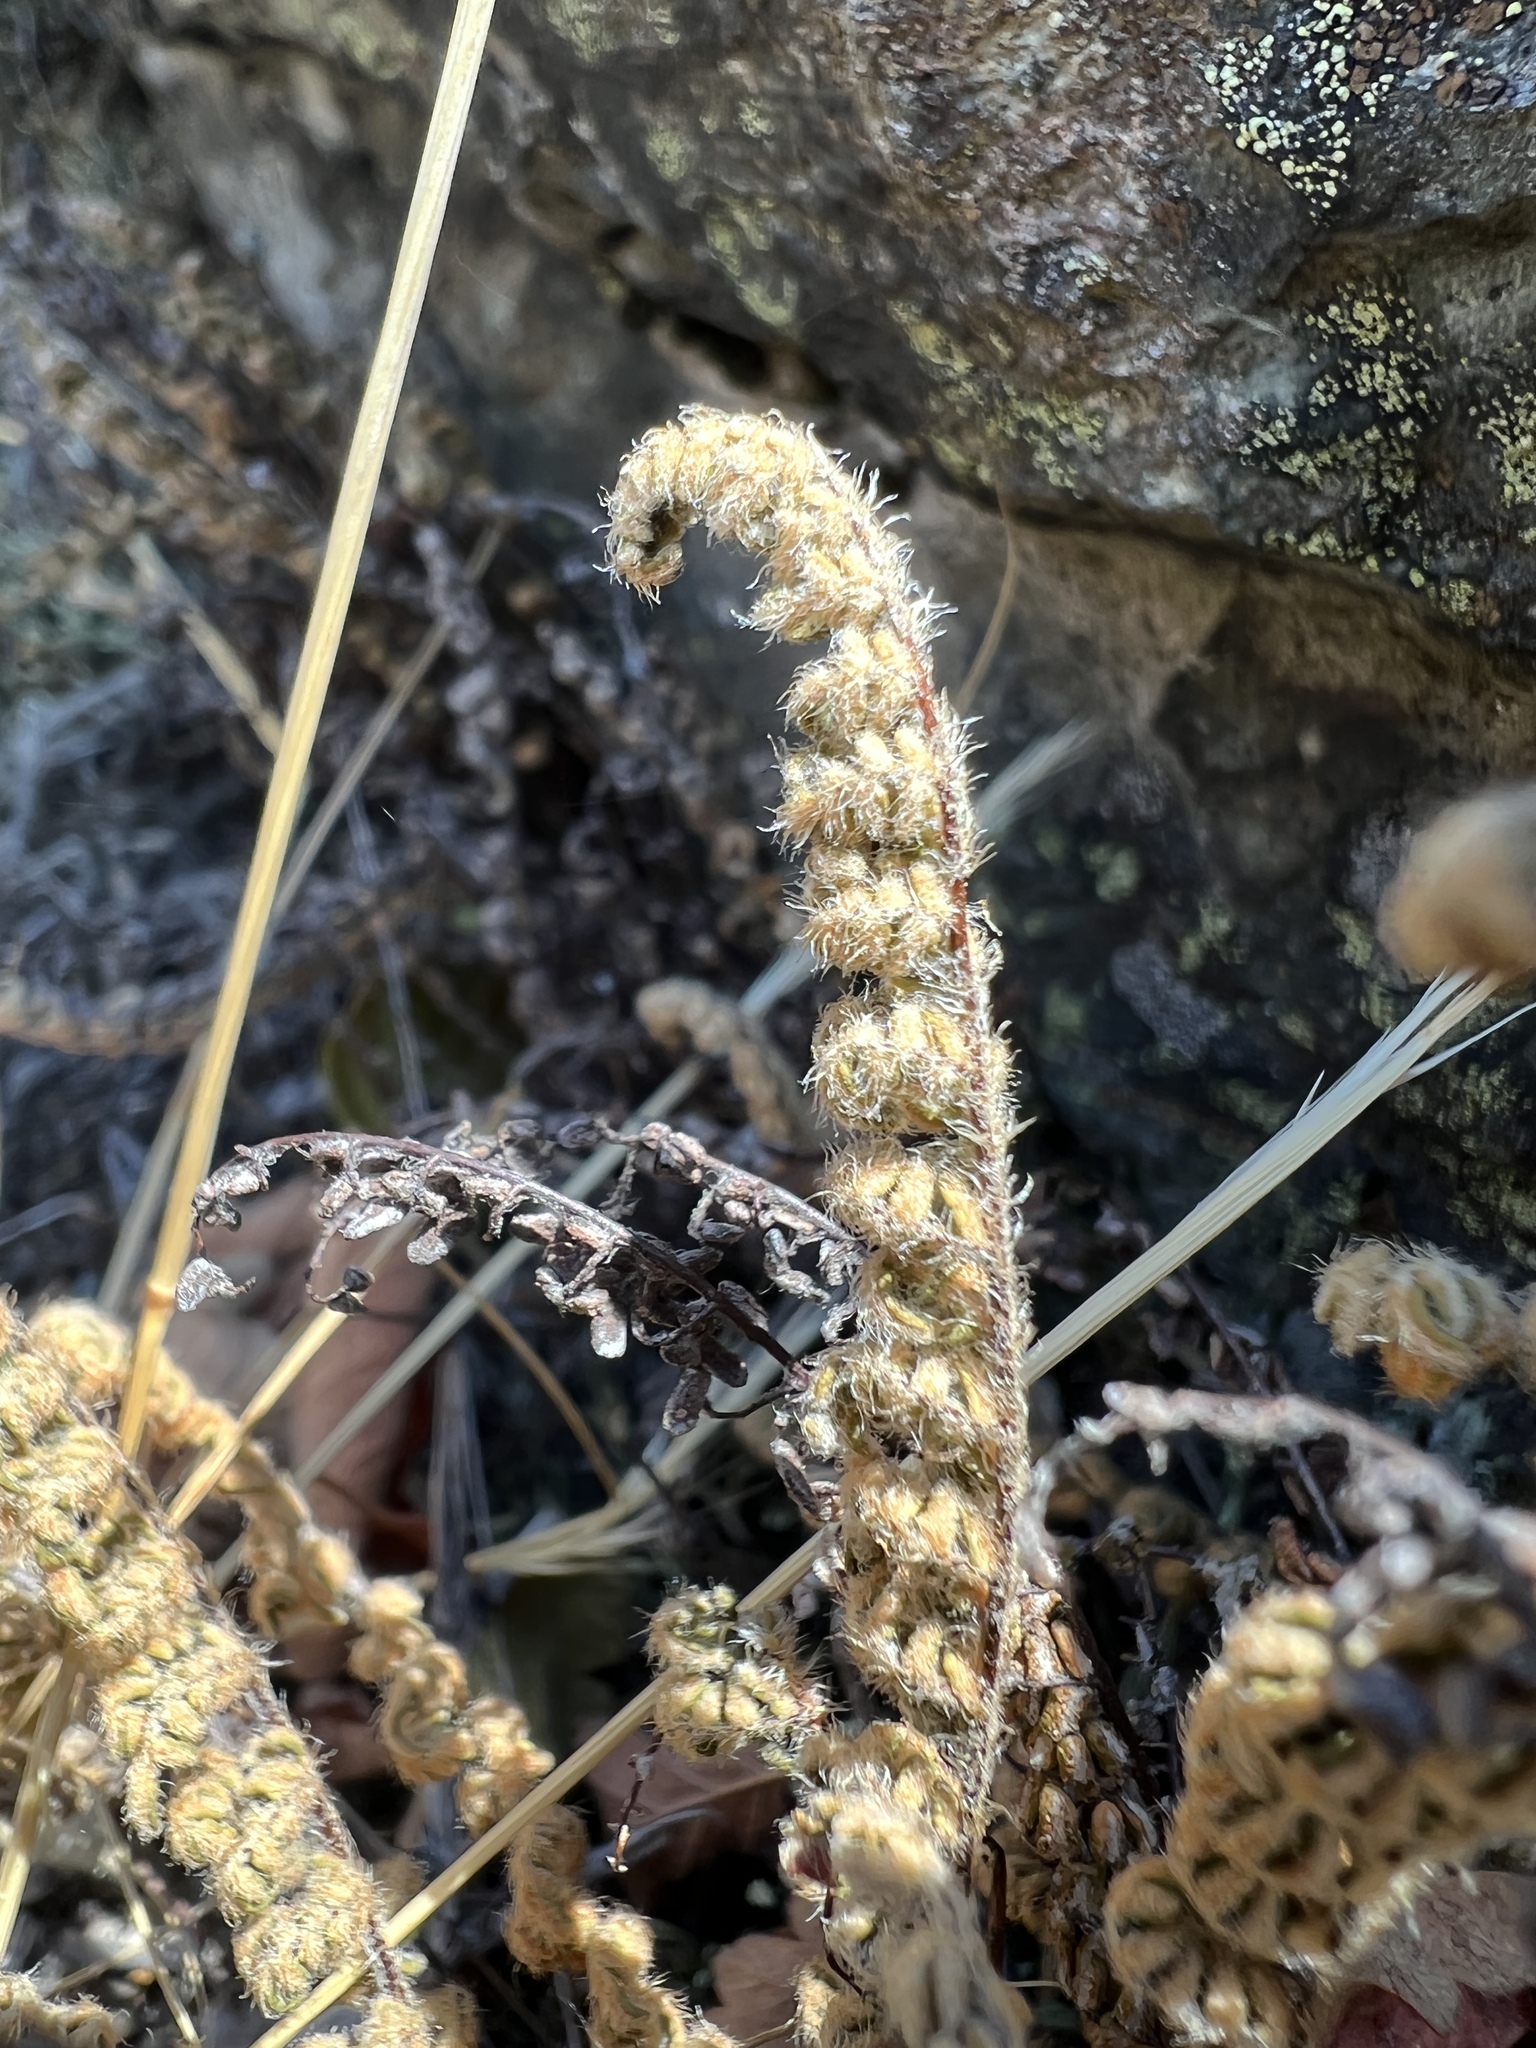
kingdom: Plantae
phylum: Tracheophyta
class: Polypodiopsida
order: Polypodiales
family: Pteridaceae
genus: Myriopteris
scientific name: Myriopteris gracillima
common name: Lace fern
